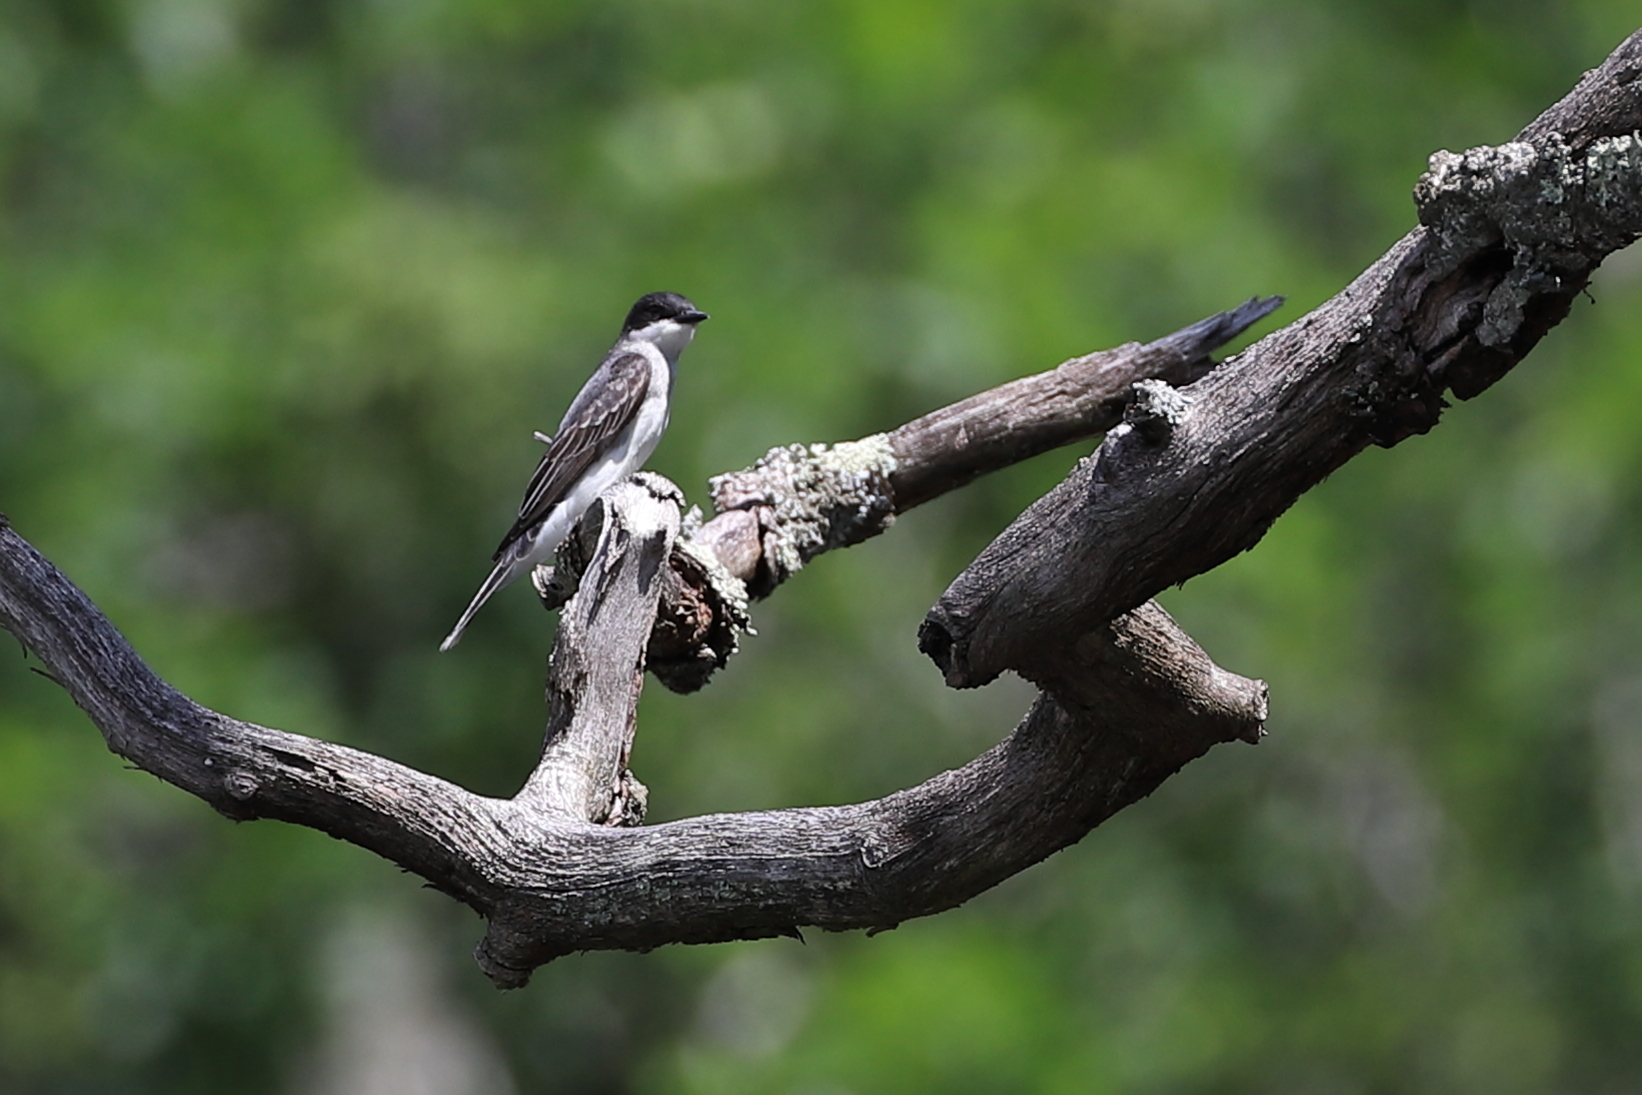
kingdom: Animalia
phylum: Chordata
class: Aves
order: Passeriformes
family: Tyrannidae
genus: Tyrannus
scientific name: Tyrannus tyrannus
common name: Eastern kingbird
